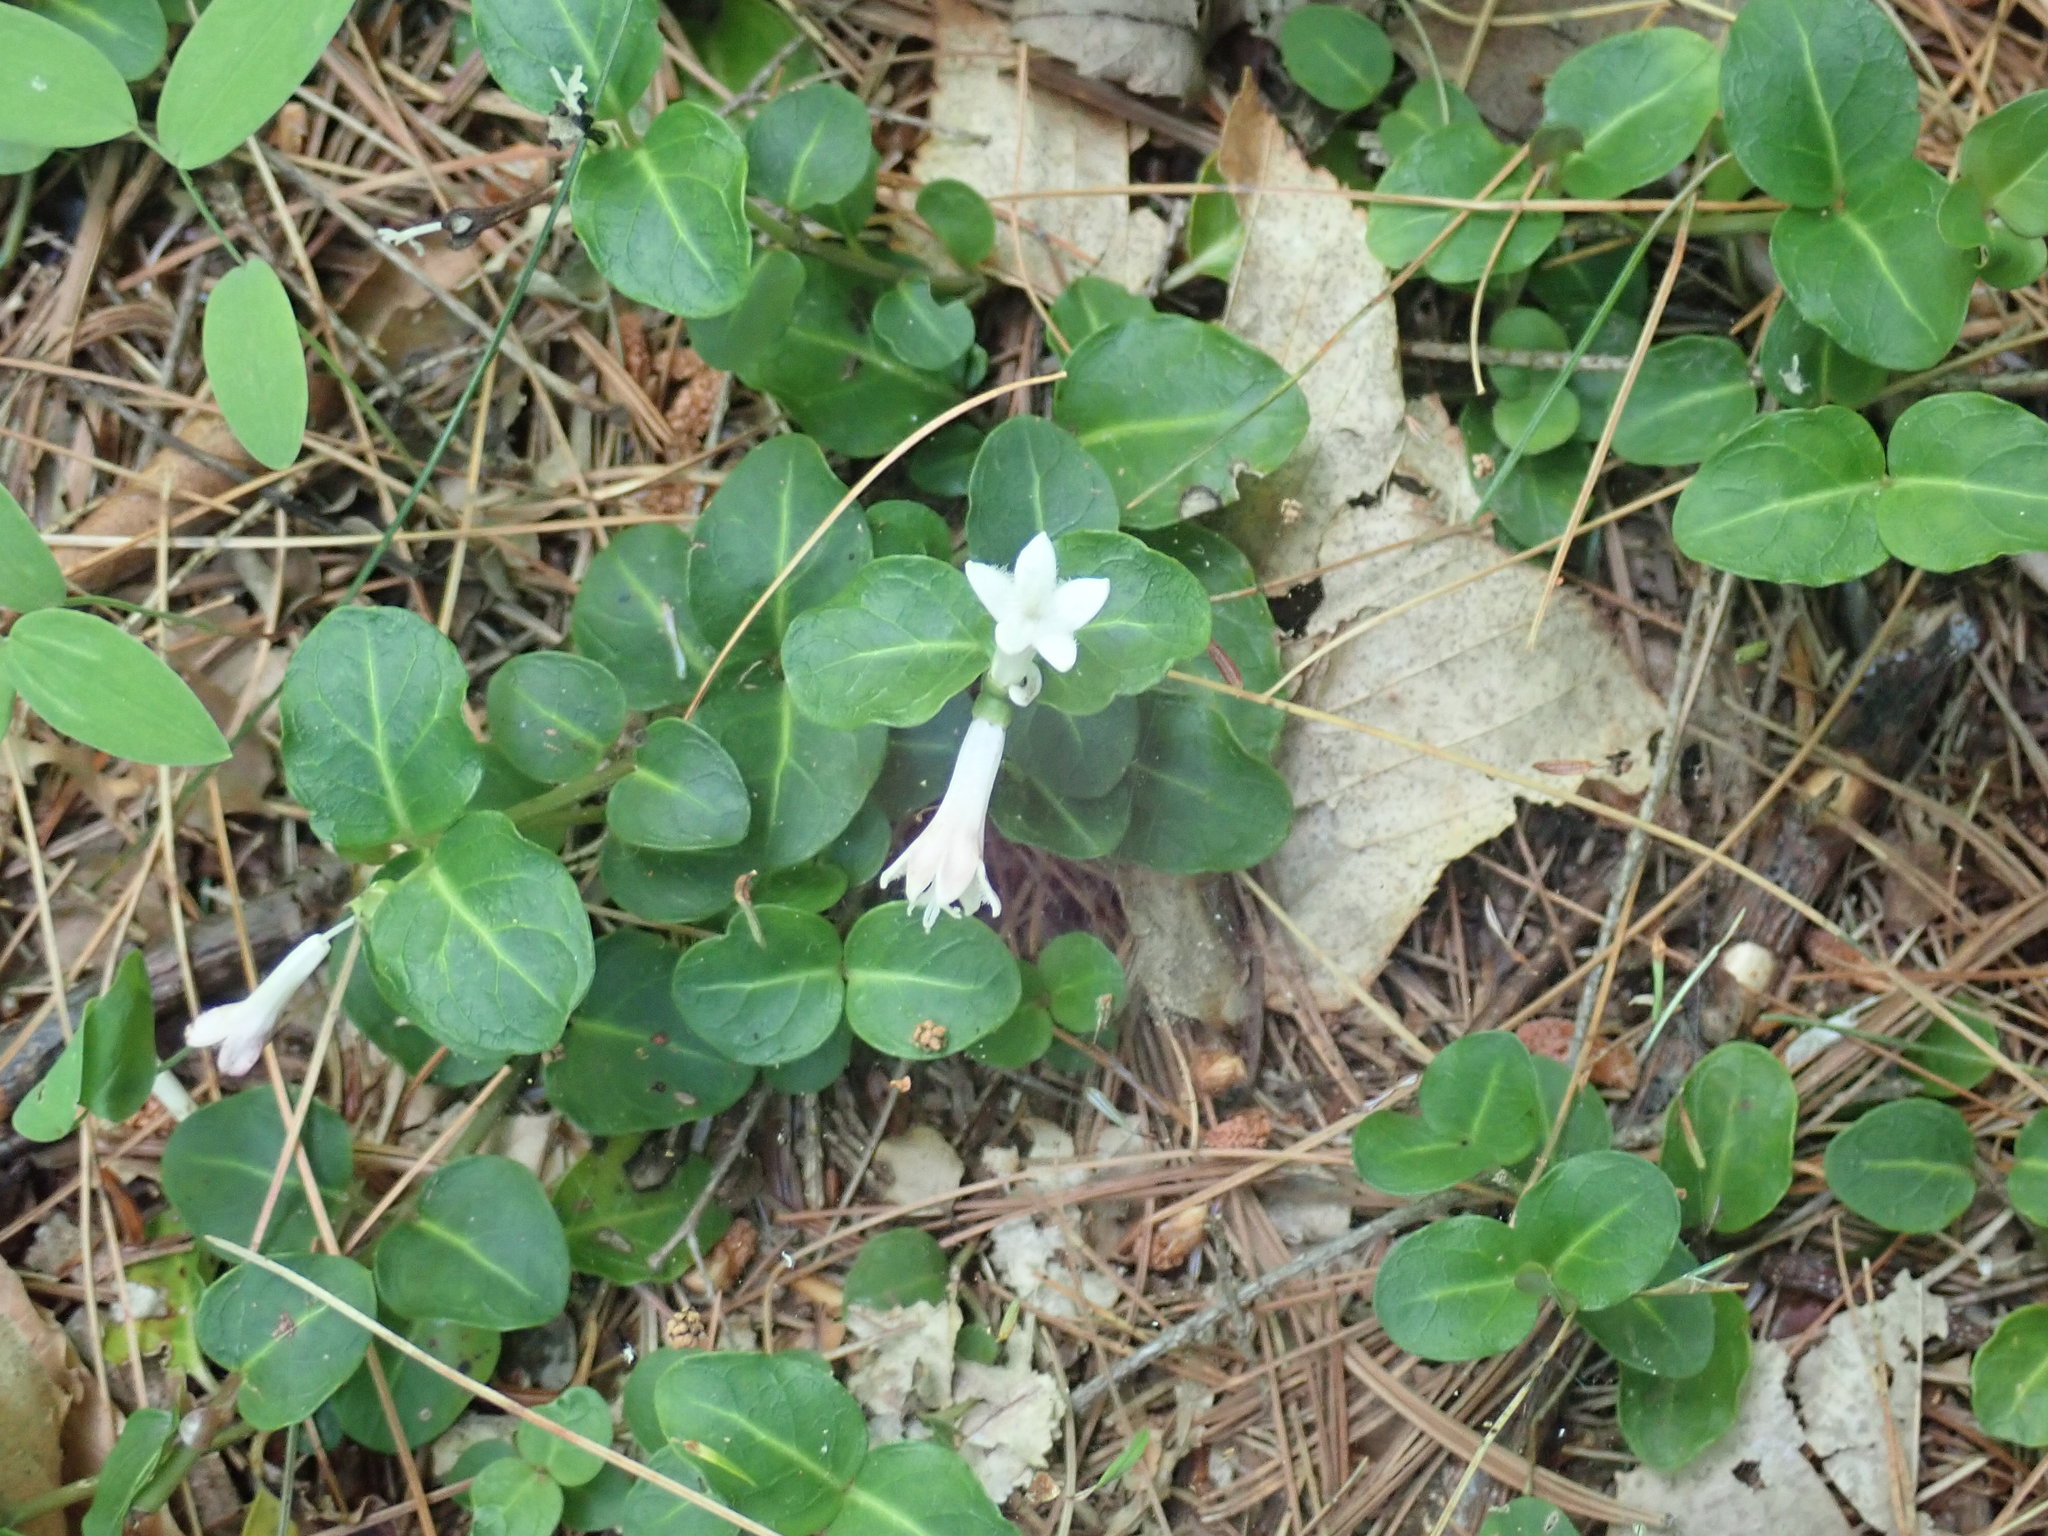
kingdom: Plantae
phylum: Tracheophyta
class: Magnoliopsida
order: Gentianales
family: Rubiaceae
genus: Mitchella
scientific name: Mitchella repens
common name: Partridge-berry
